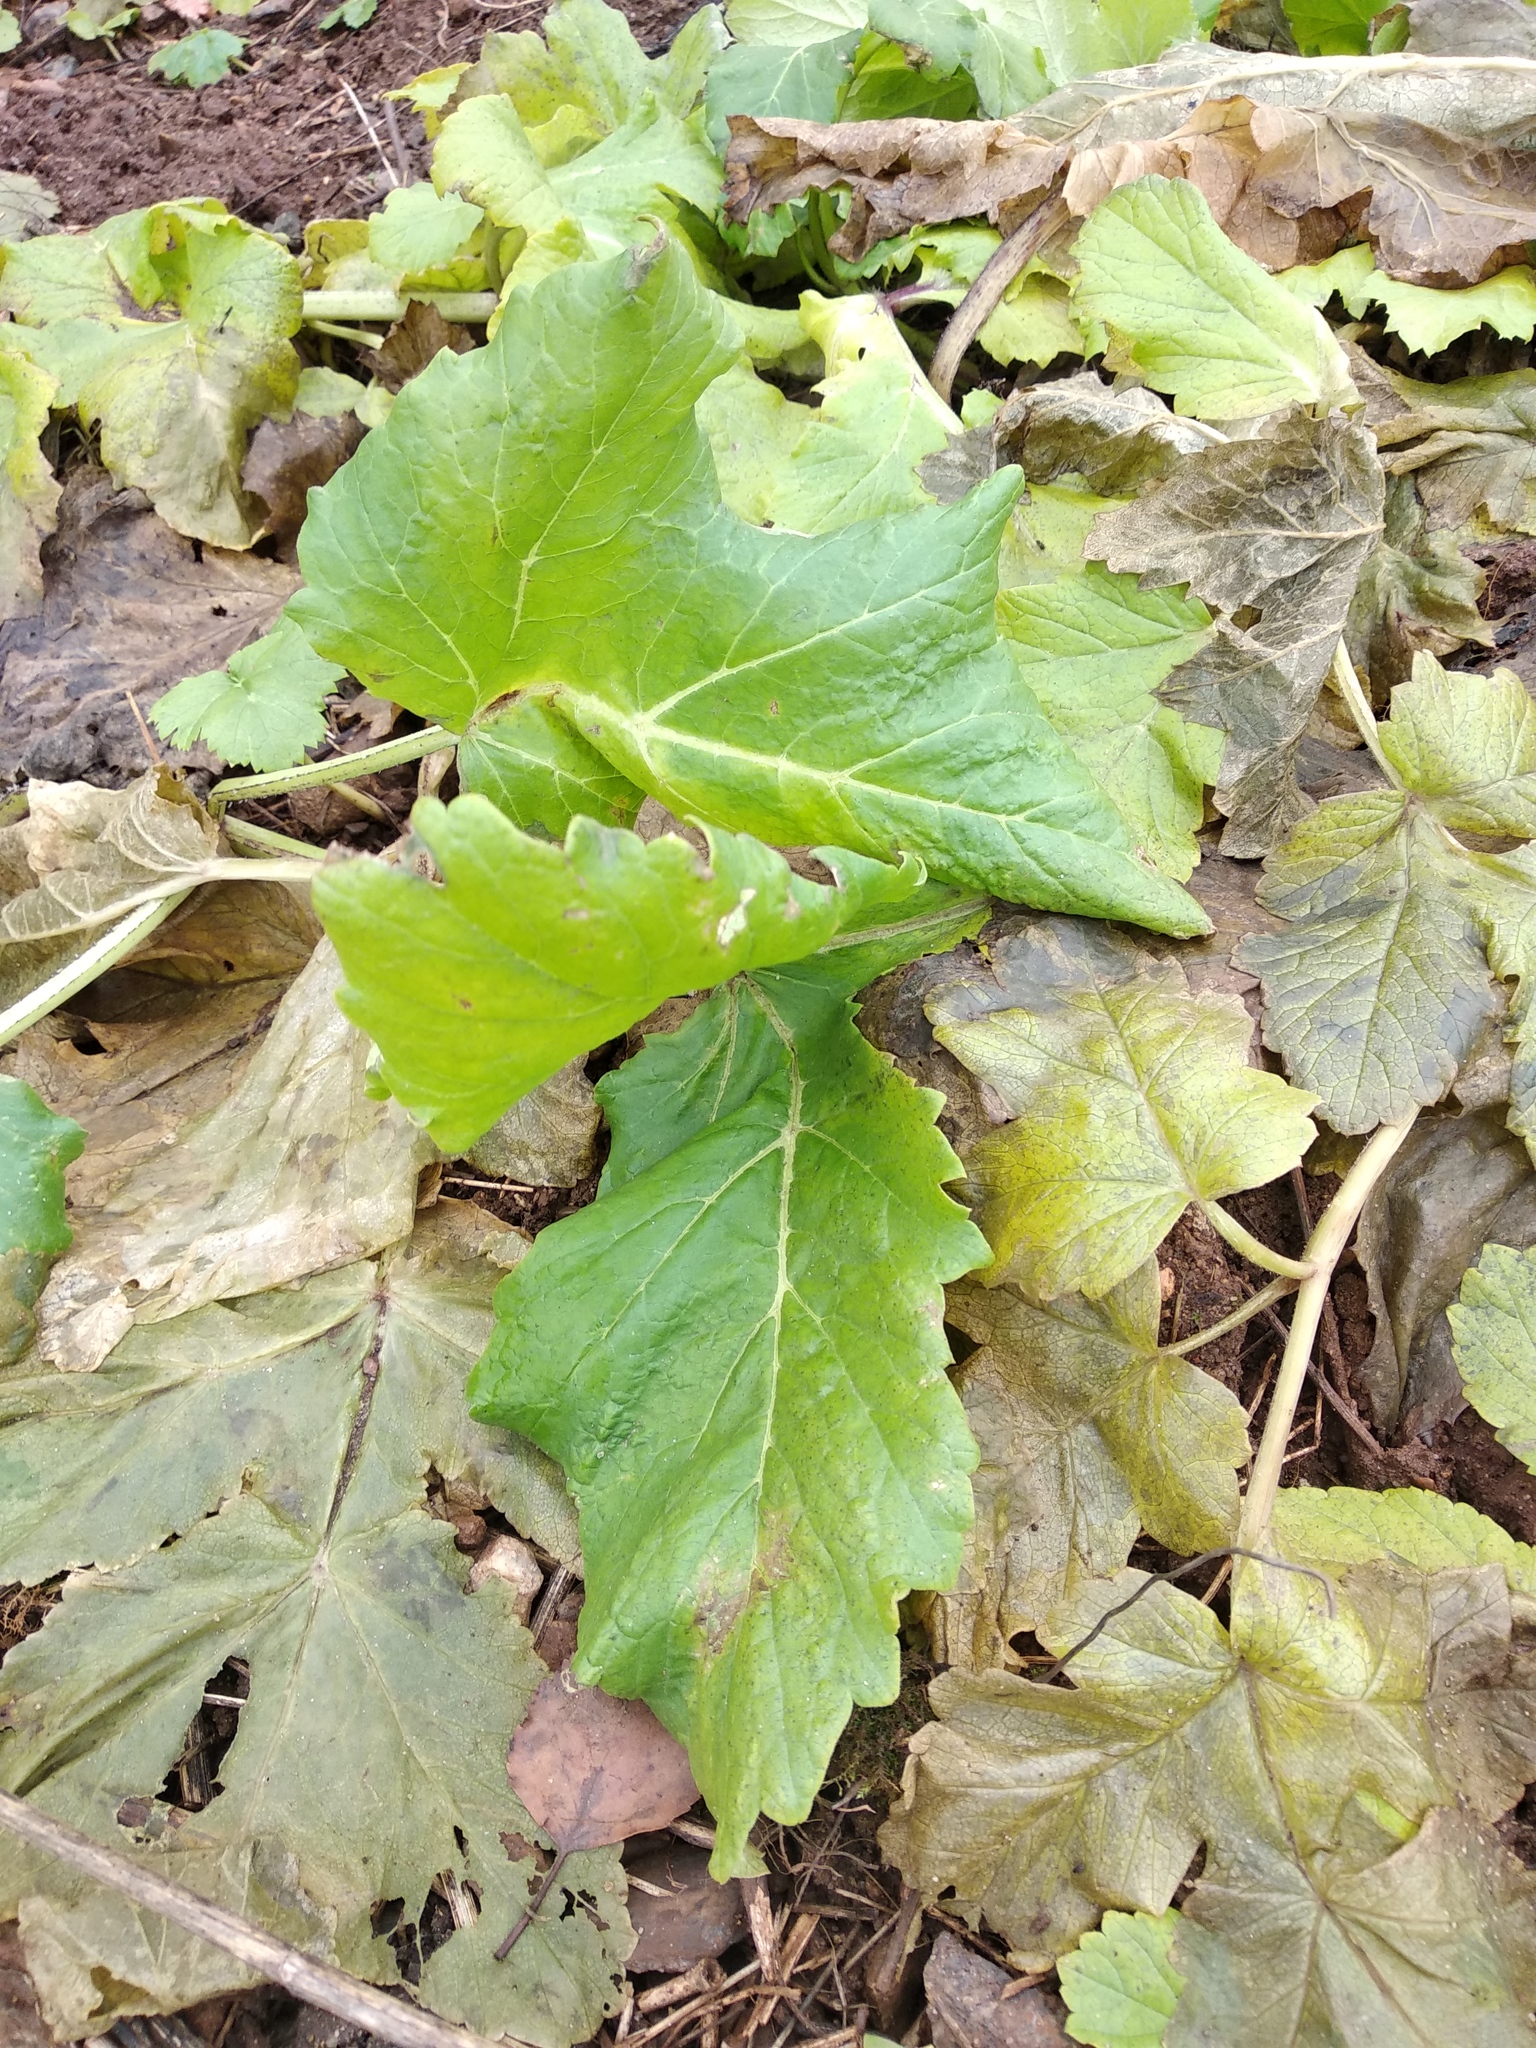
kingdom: Plantae
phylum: Tracheophyta
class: Magnoliopsida
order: Apiales
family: Apiaceae
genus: Heracleum
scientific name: Heracleum sosnowskyi
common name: Sosnowsky's hogweed
